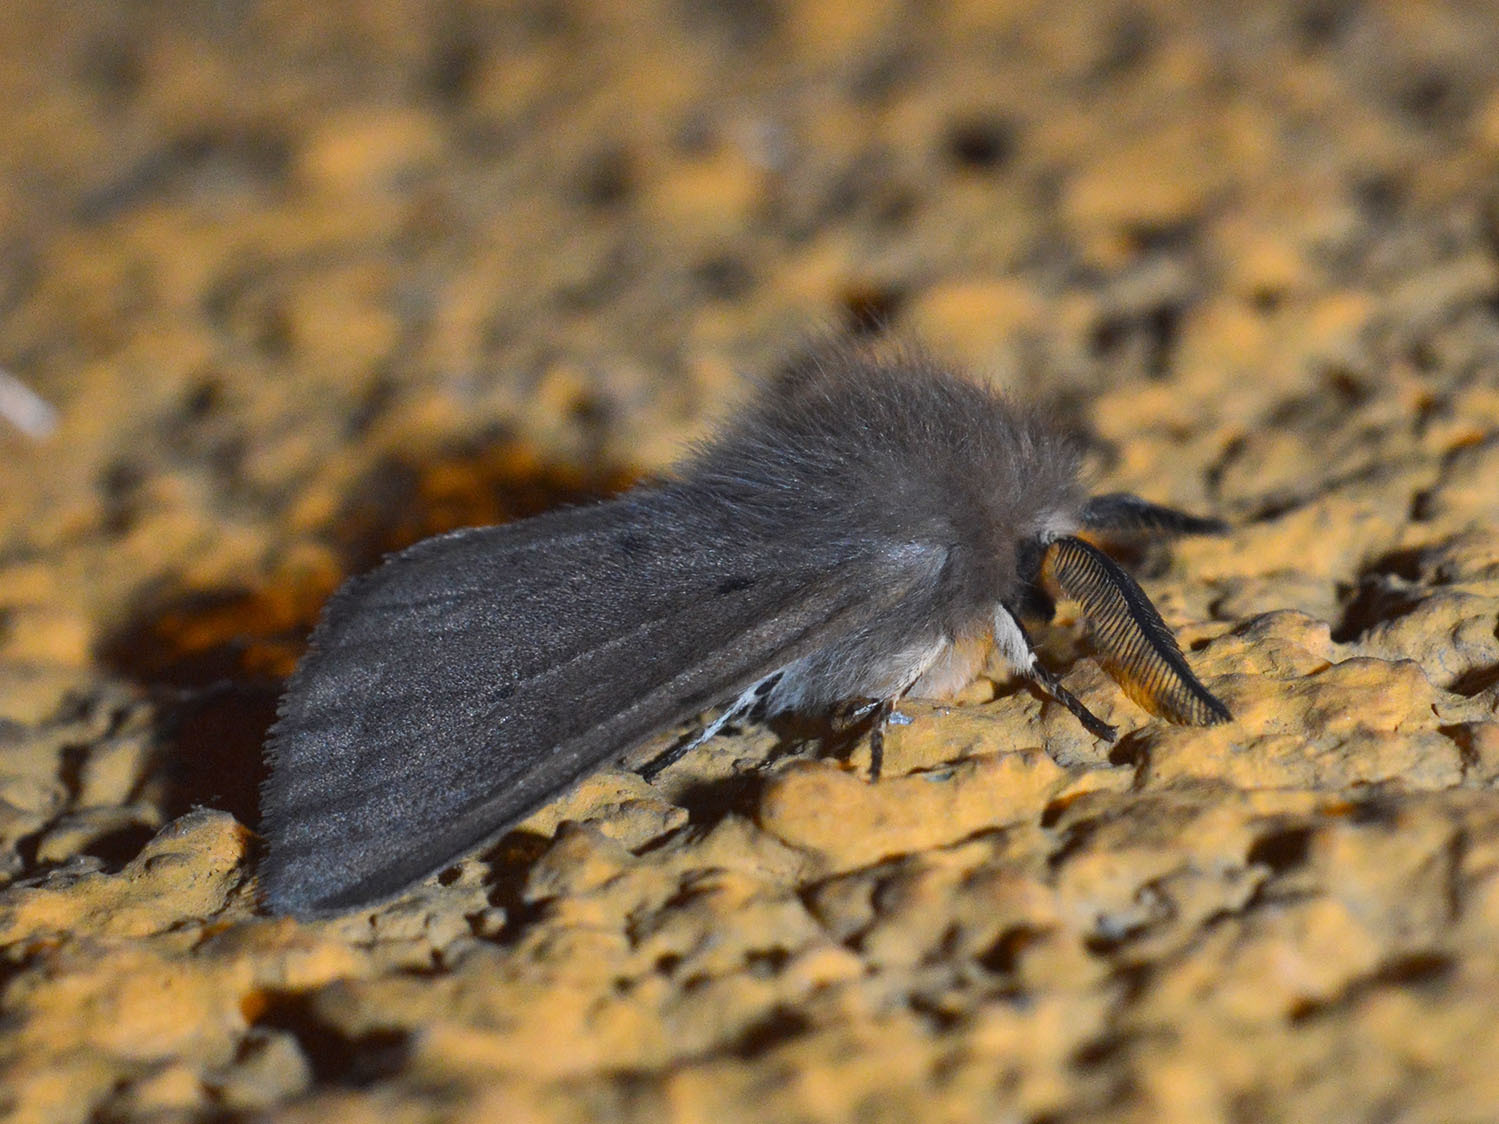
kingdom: Animalia
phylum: Arthropoda
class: Insecta
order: Lepidoptera
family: Erebidae
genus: Diaphora
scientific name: Diaphora mendica
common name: Muslin moth
